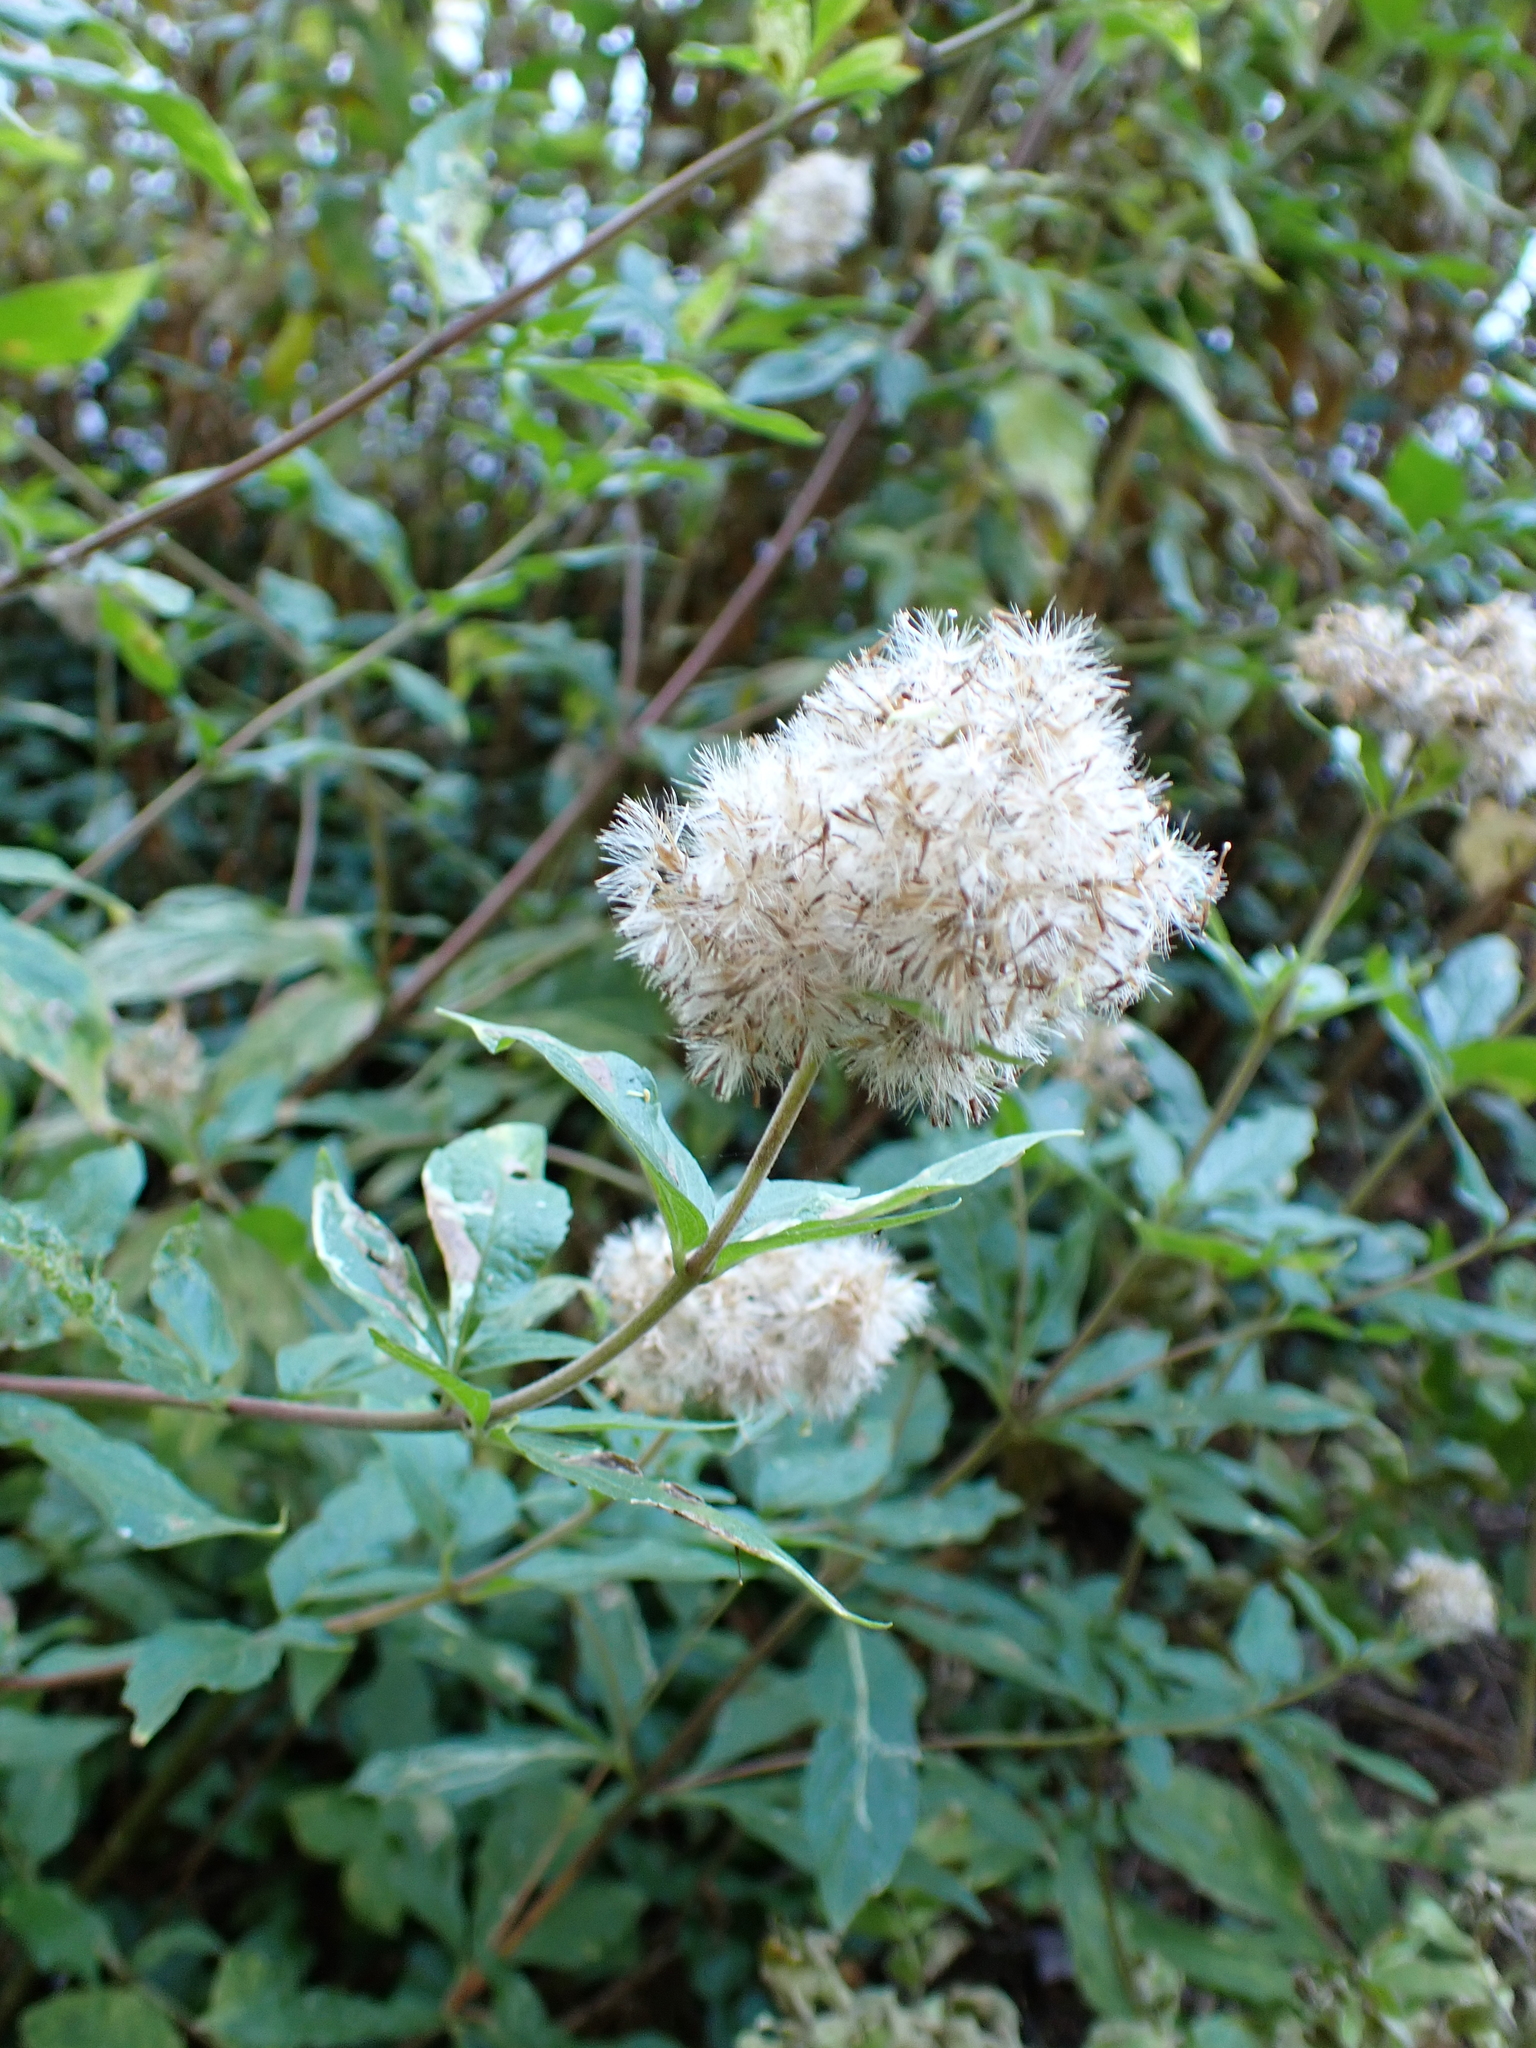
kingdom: Plantae
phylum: Tracheophyta
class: Magnoliopsida
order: Asterales
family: Asteraceae
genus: Eupatorium
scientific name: Eupatorium cannabinum
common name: Hemp-agrimony
